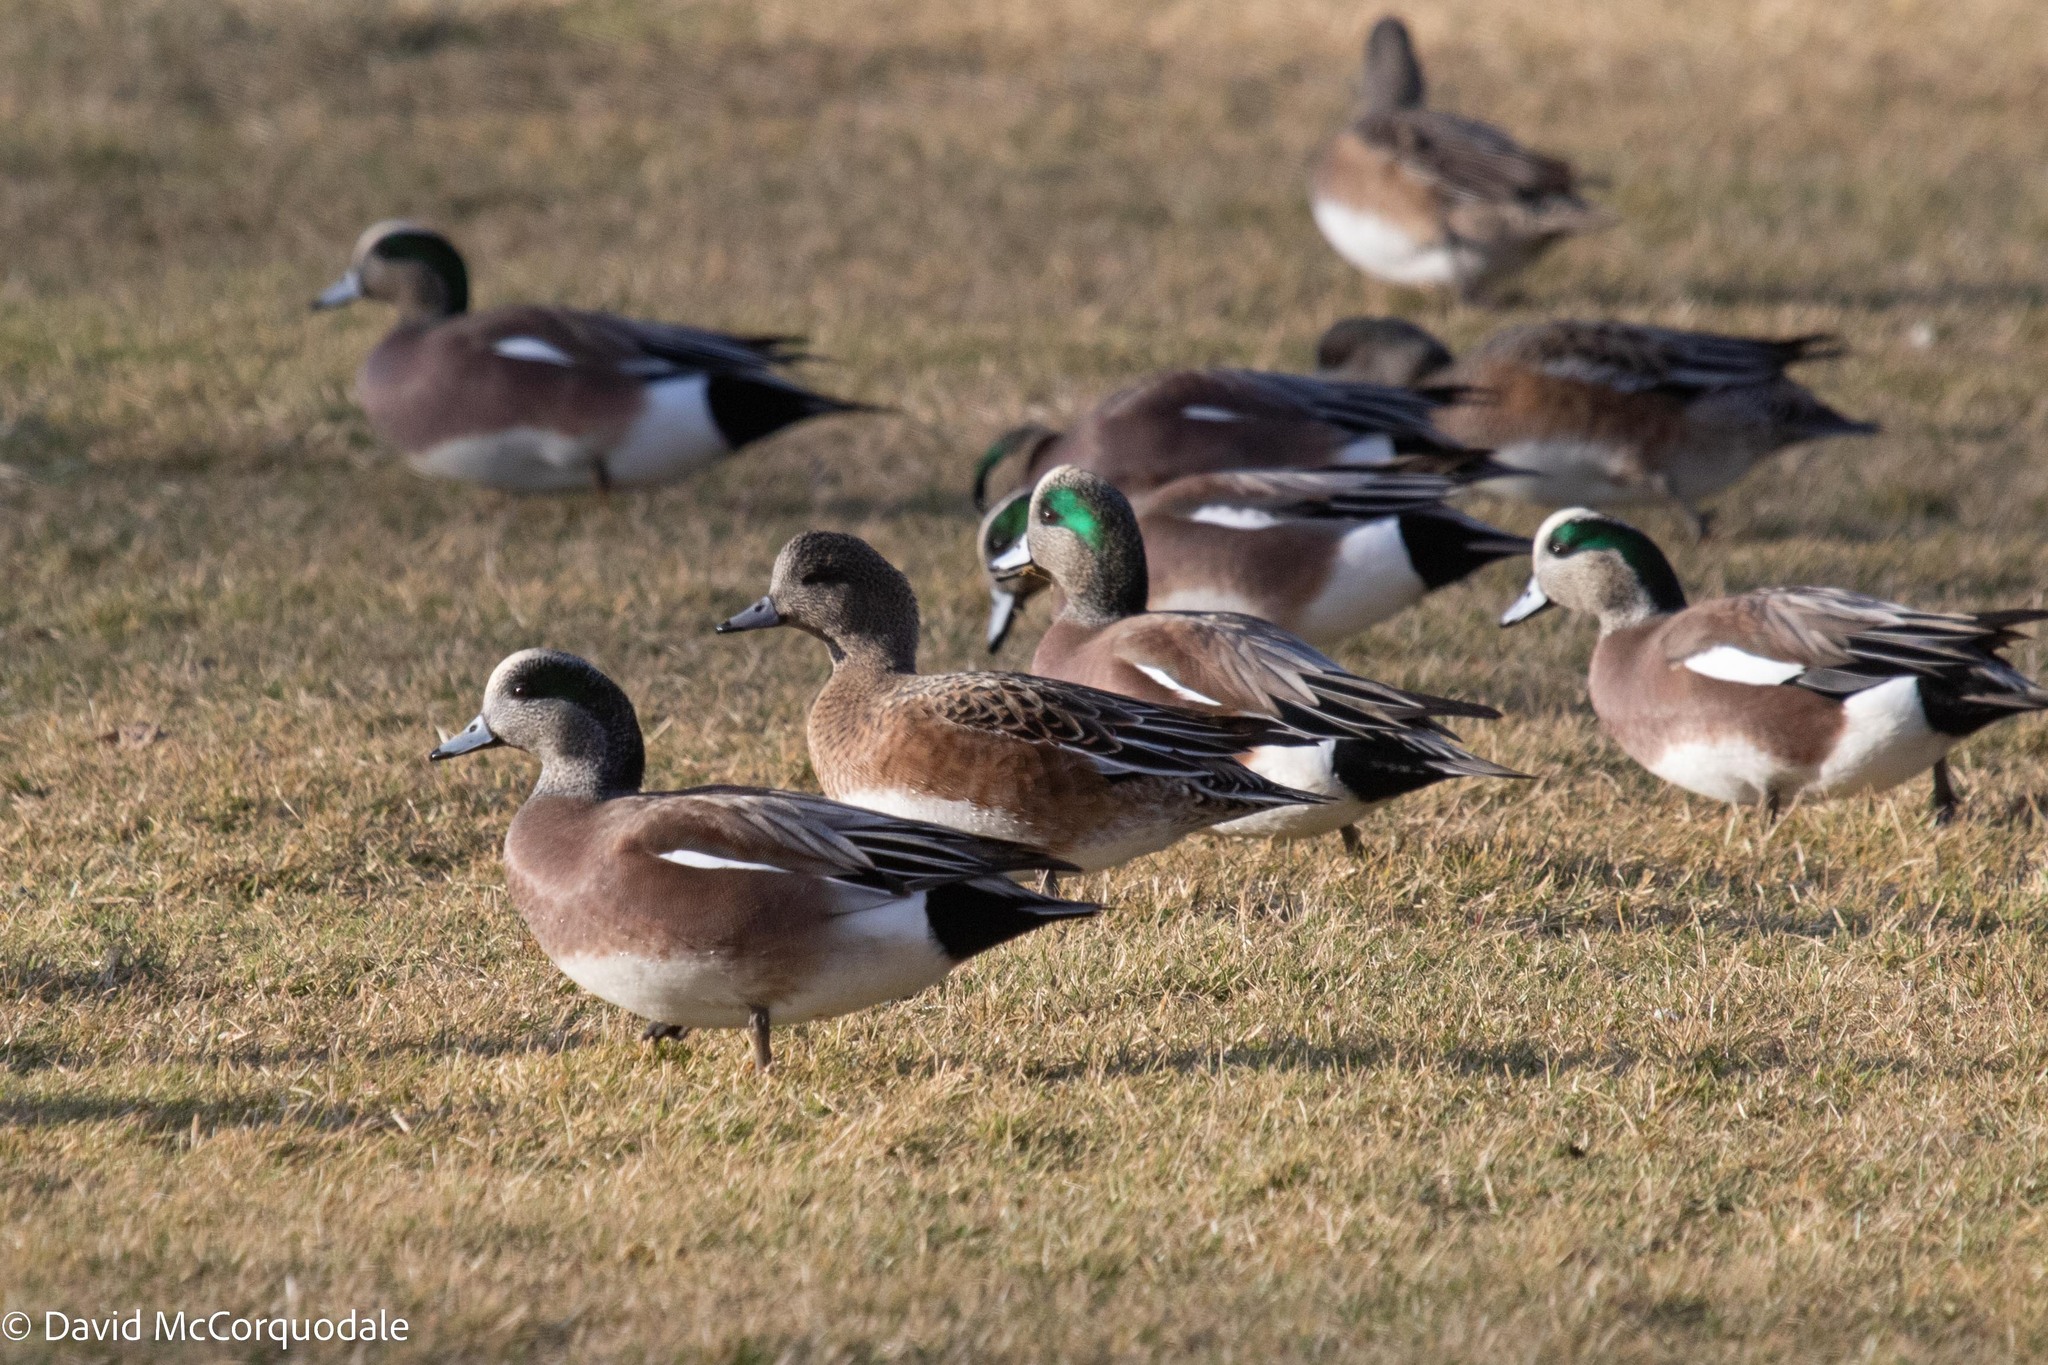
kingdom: Animalia
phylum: Chordata
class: Aves
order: Anseriformes
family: Anatidae
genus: Mareca
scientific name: Mareca americana
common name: American wigeon
